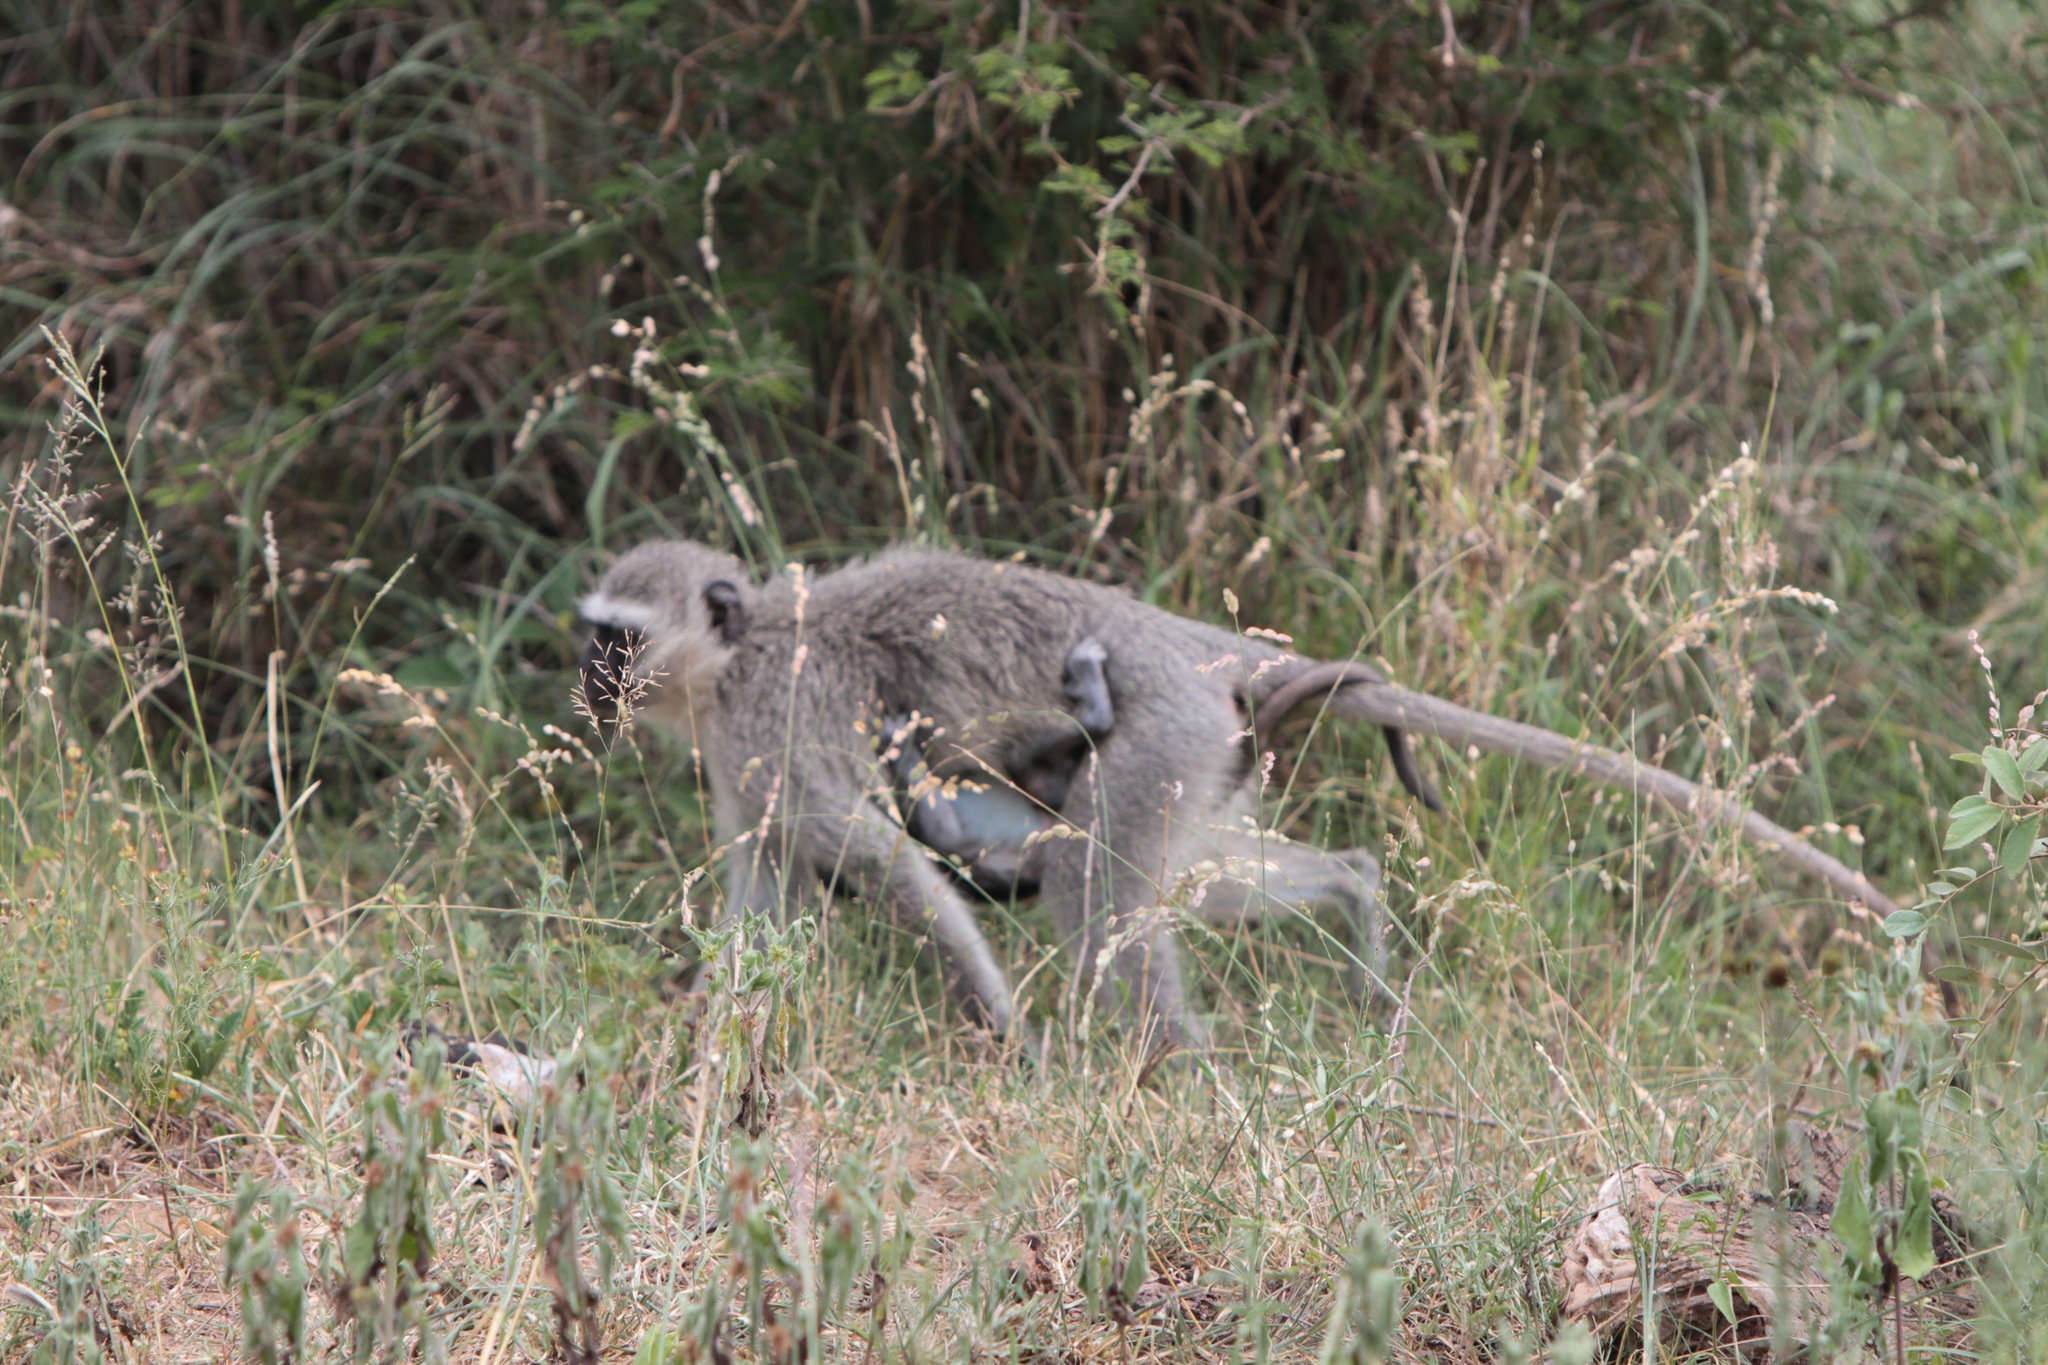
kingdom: Animalia
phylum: Chordata
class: Mammalia
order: Primates
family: Cercopithecidae
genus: Chlorocebus
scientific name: Chlorocebus pygerythrus
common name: Vervet monkey
